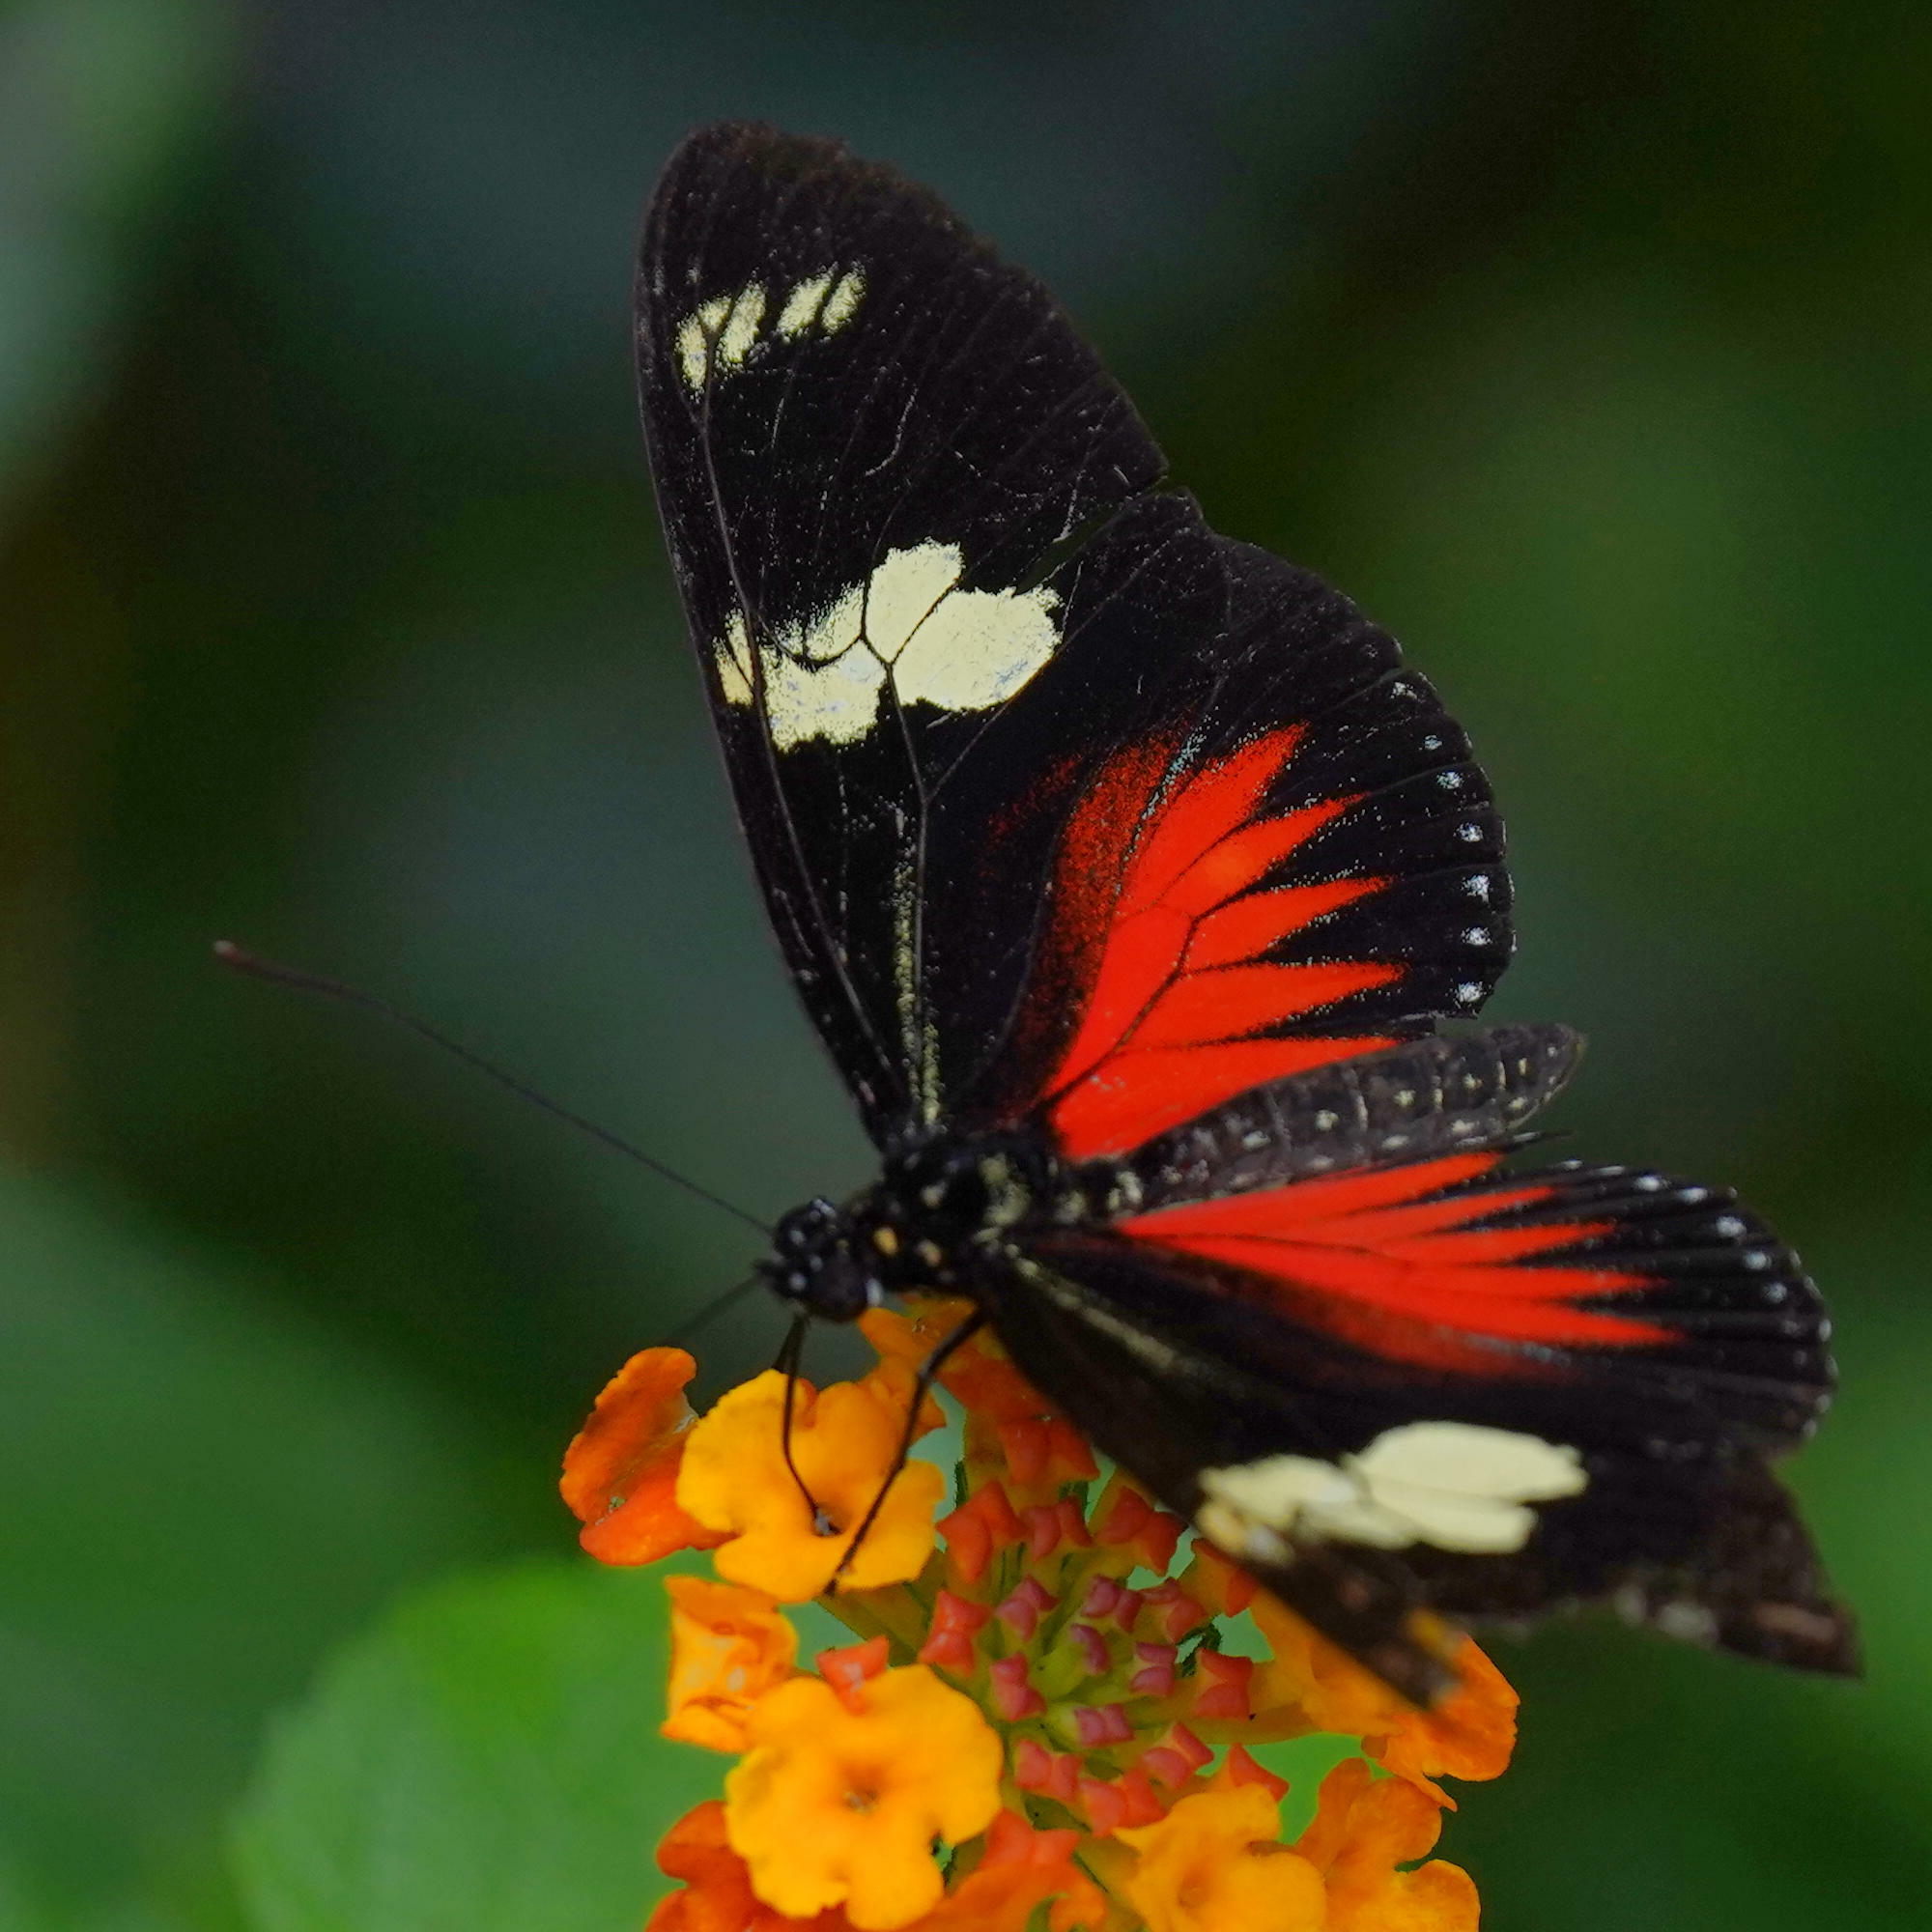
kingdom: Animalia
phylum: Arthropoda
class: Insecta
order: Lepidoptera
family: Nymphalidae
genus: Heliconius
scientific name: Heliconius doris
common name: Doris longwing
